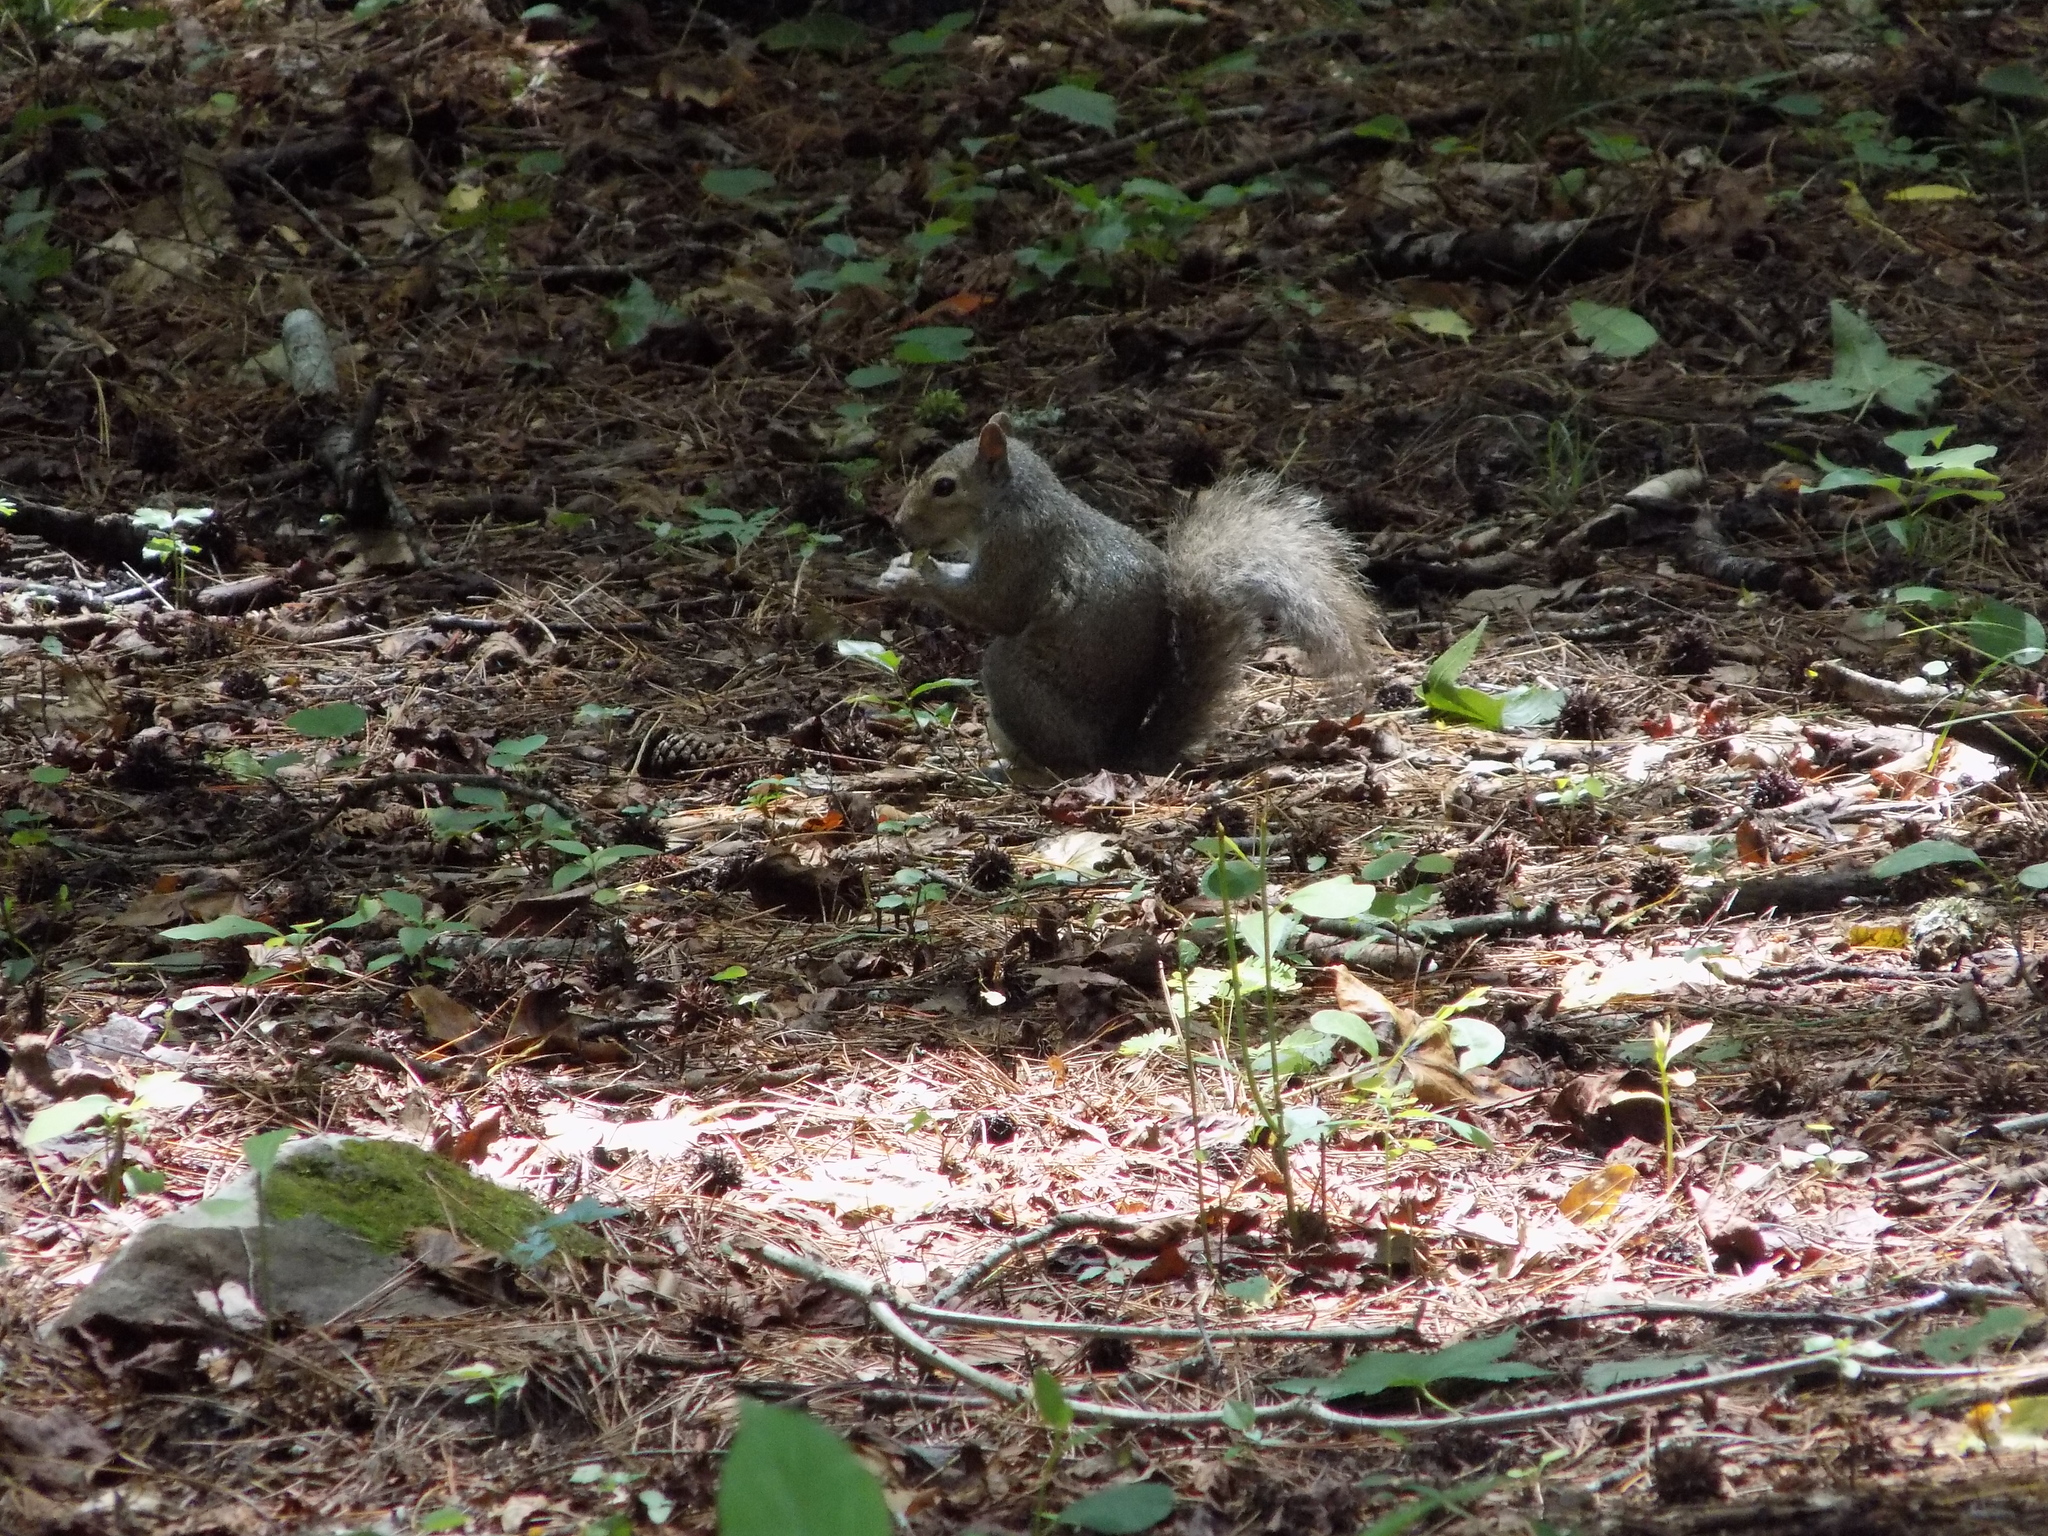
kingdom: Animalia
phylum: Chordata
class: Mammalia
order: Rodentia
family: Sciuridae
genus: Sciurus
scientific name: Sciurus carolinensis
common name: Eastern gray squirrel
